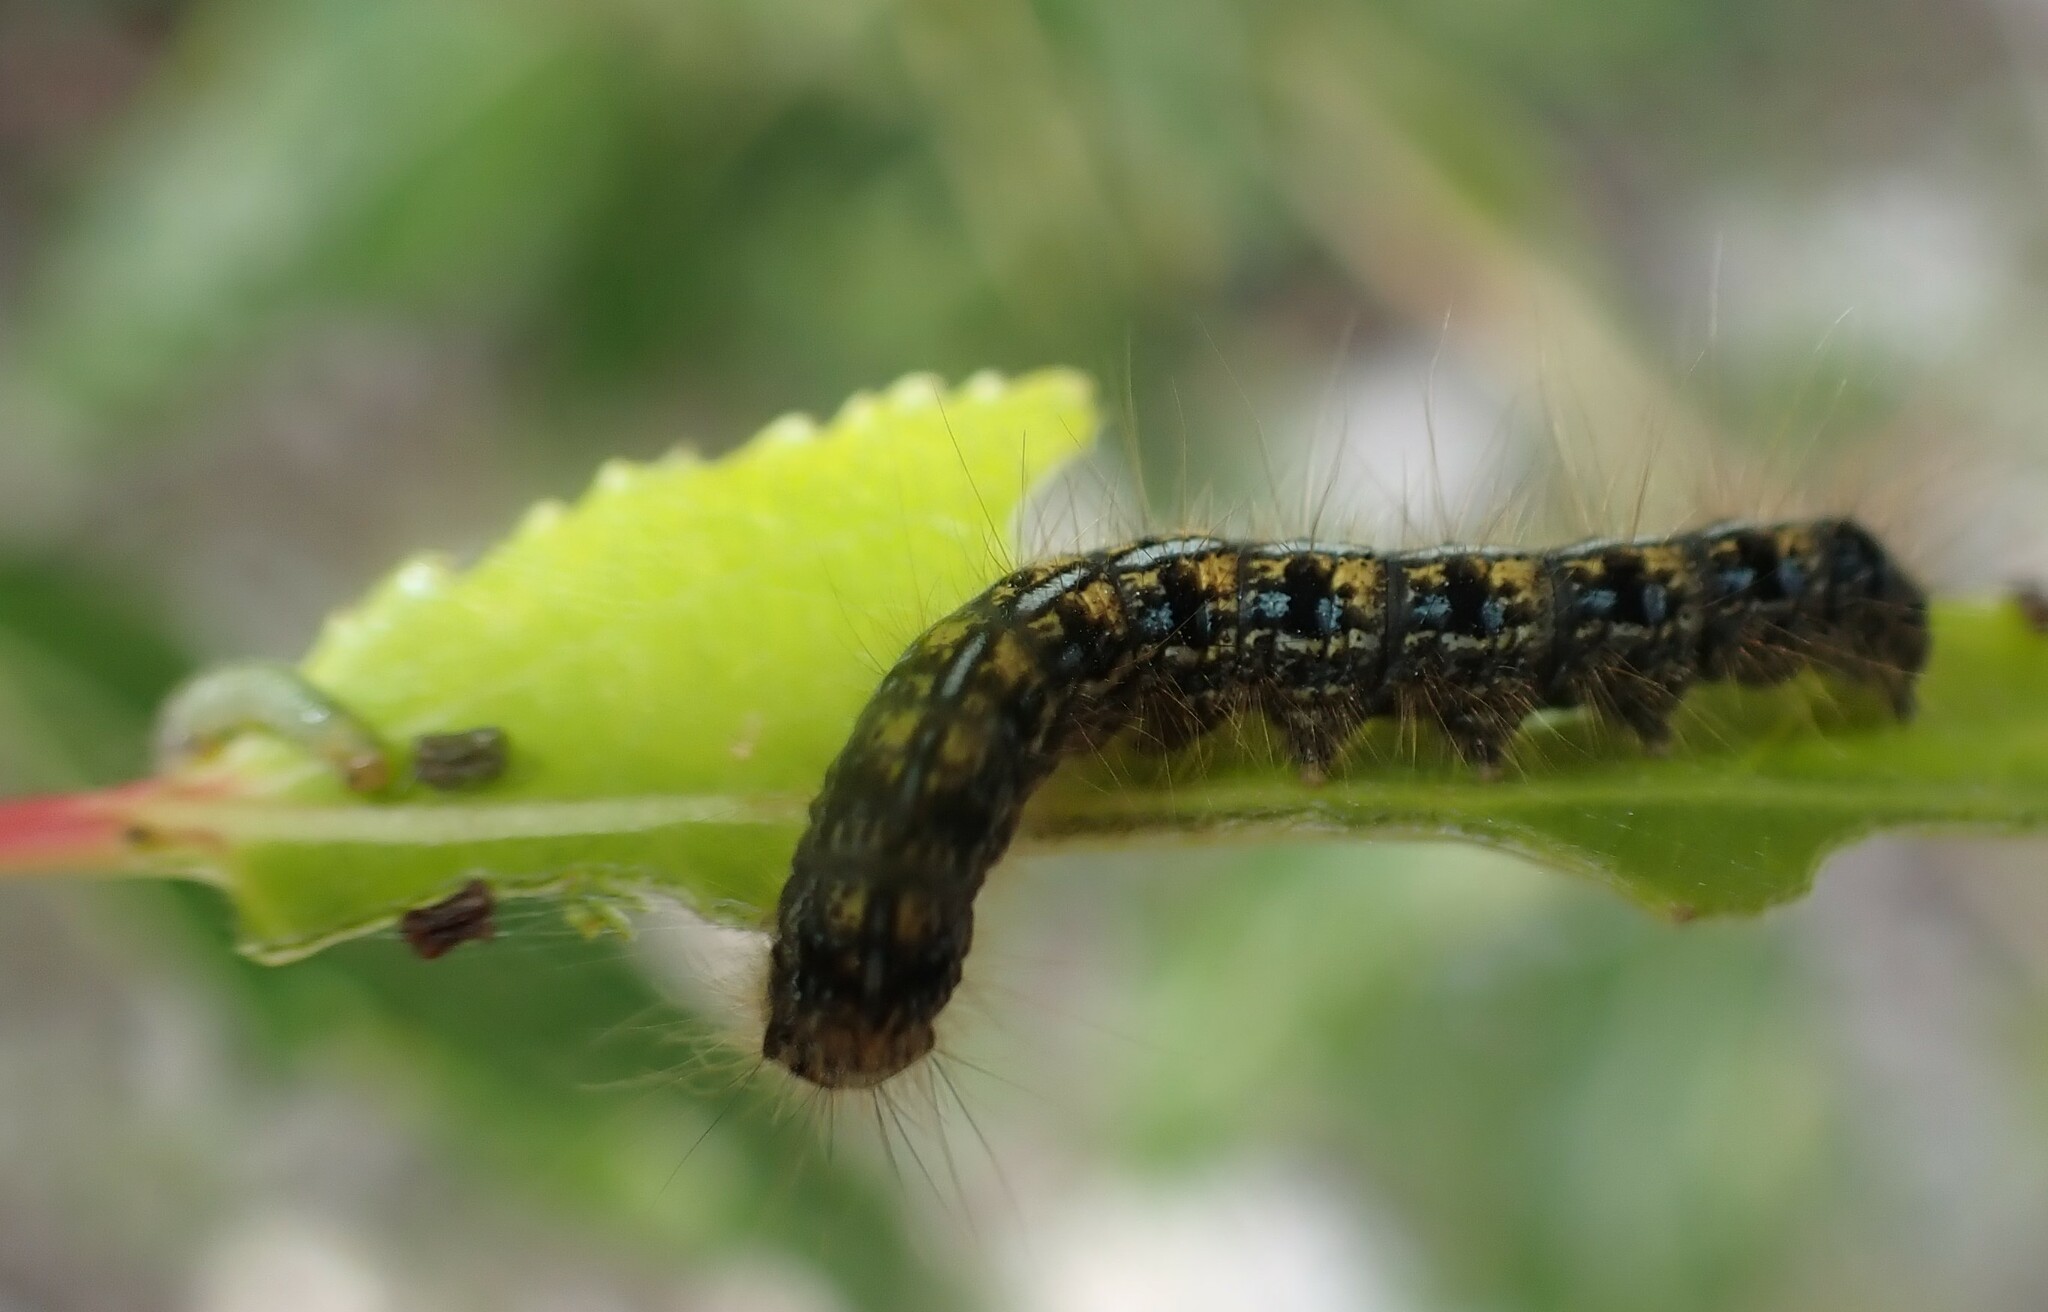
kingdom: Animalia
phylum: Arthropoda
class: Insecta
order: Lepidoptera
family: Lasiocampidae
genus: Malacosoma
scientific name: Malacosoma californica
